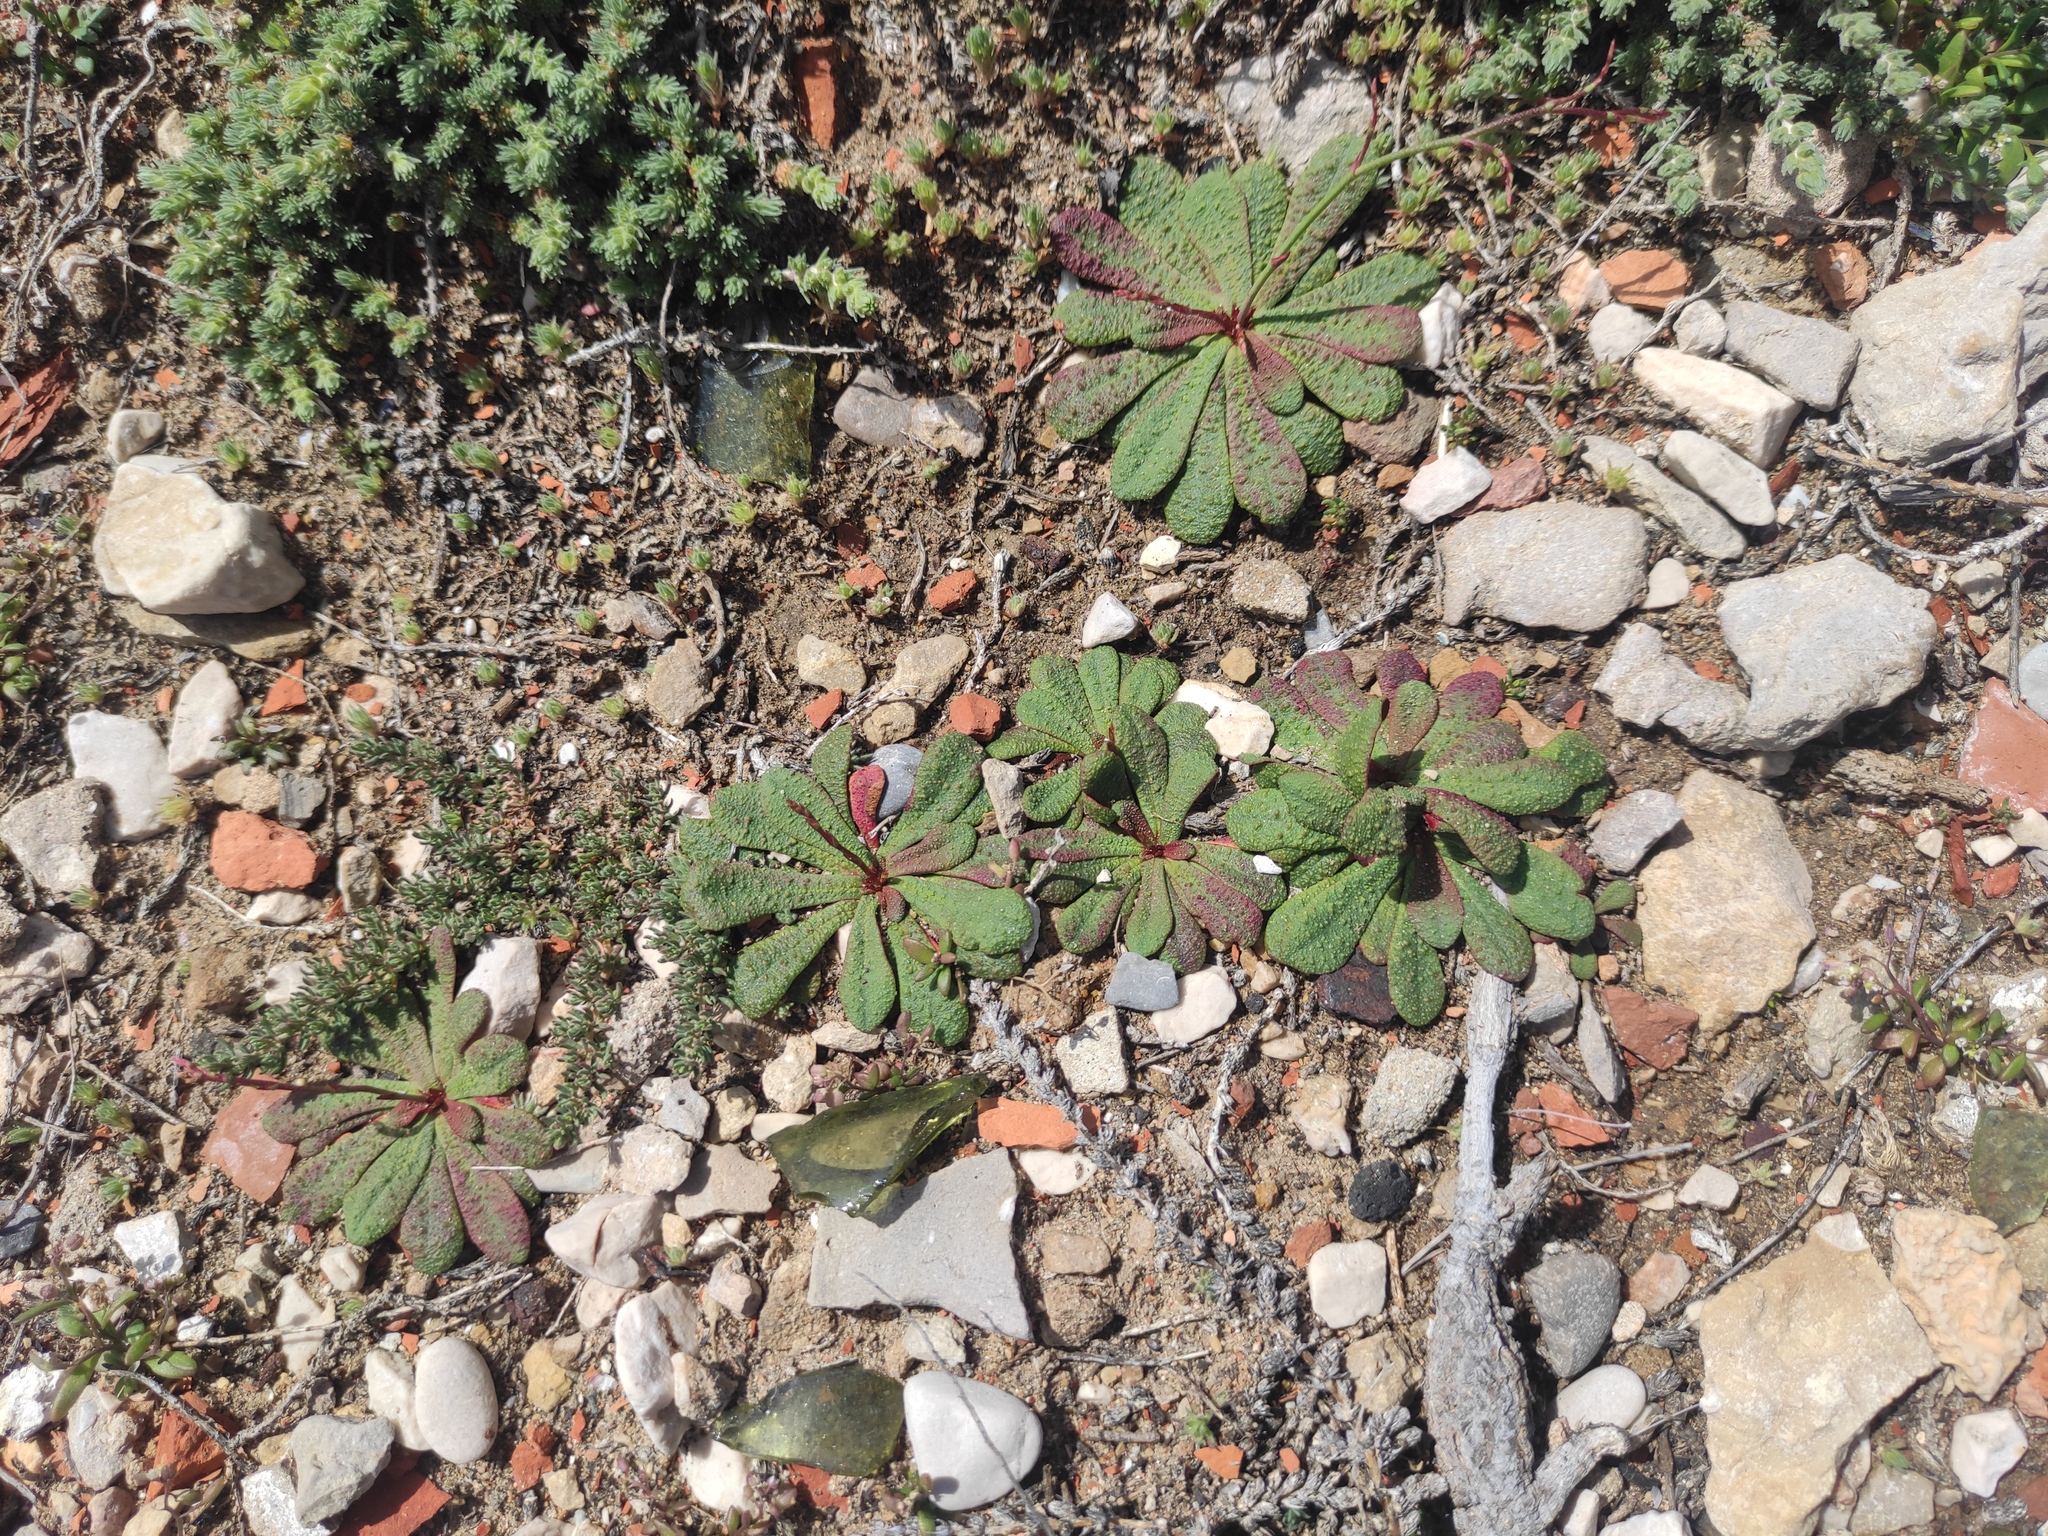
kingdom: Plantae
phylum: Tracheophyta
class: Magnoliopsida
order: Caryophyllales
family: Plumbaginaceae
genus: Limonium
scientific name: Limonium echioides
